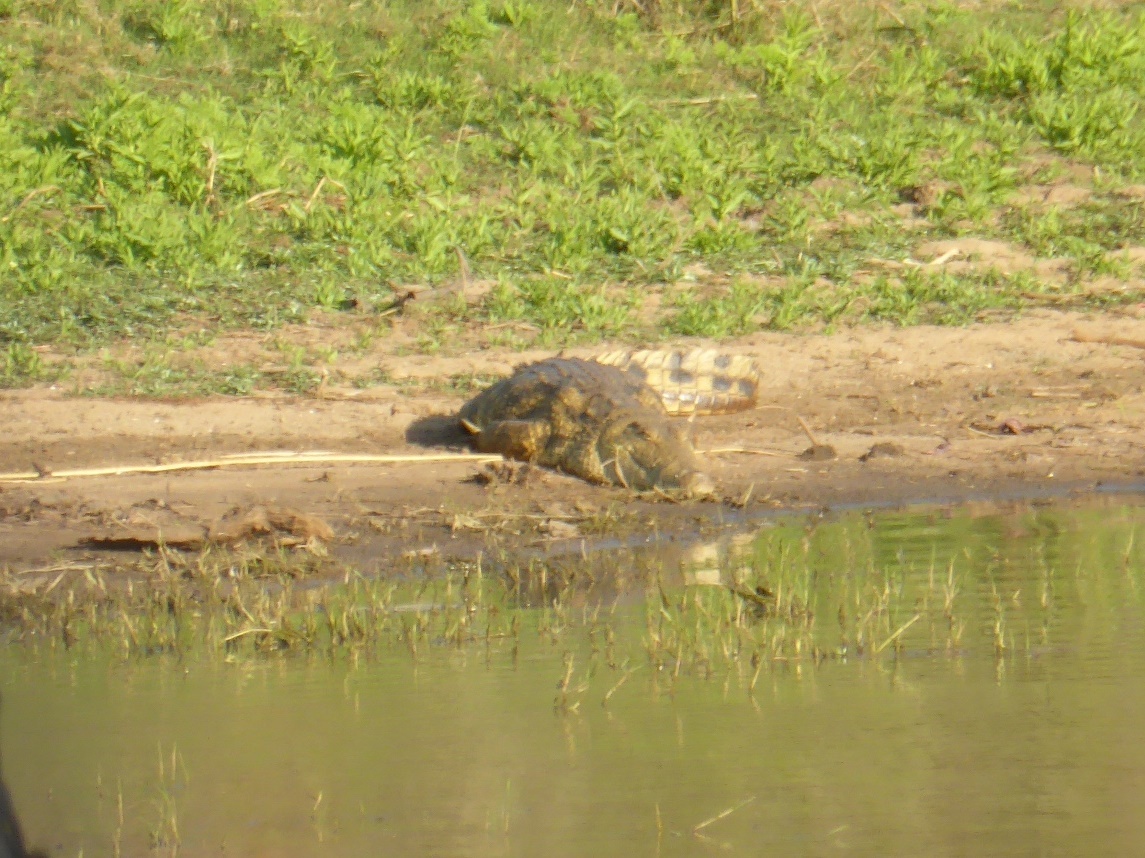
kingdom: Animalia
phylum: Chordata
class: Crocodylia
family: Crocodylidae
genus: Crocodylus
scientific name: Crocodylus niloticus
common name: Nile crocodile
